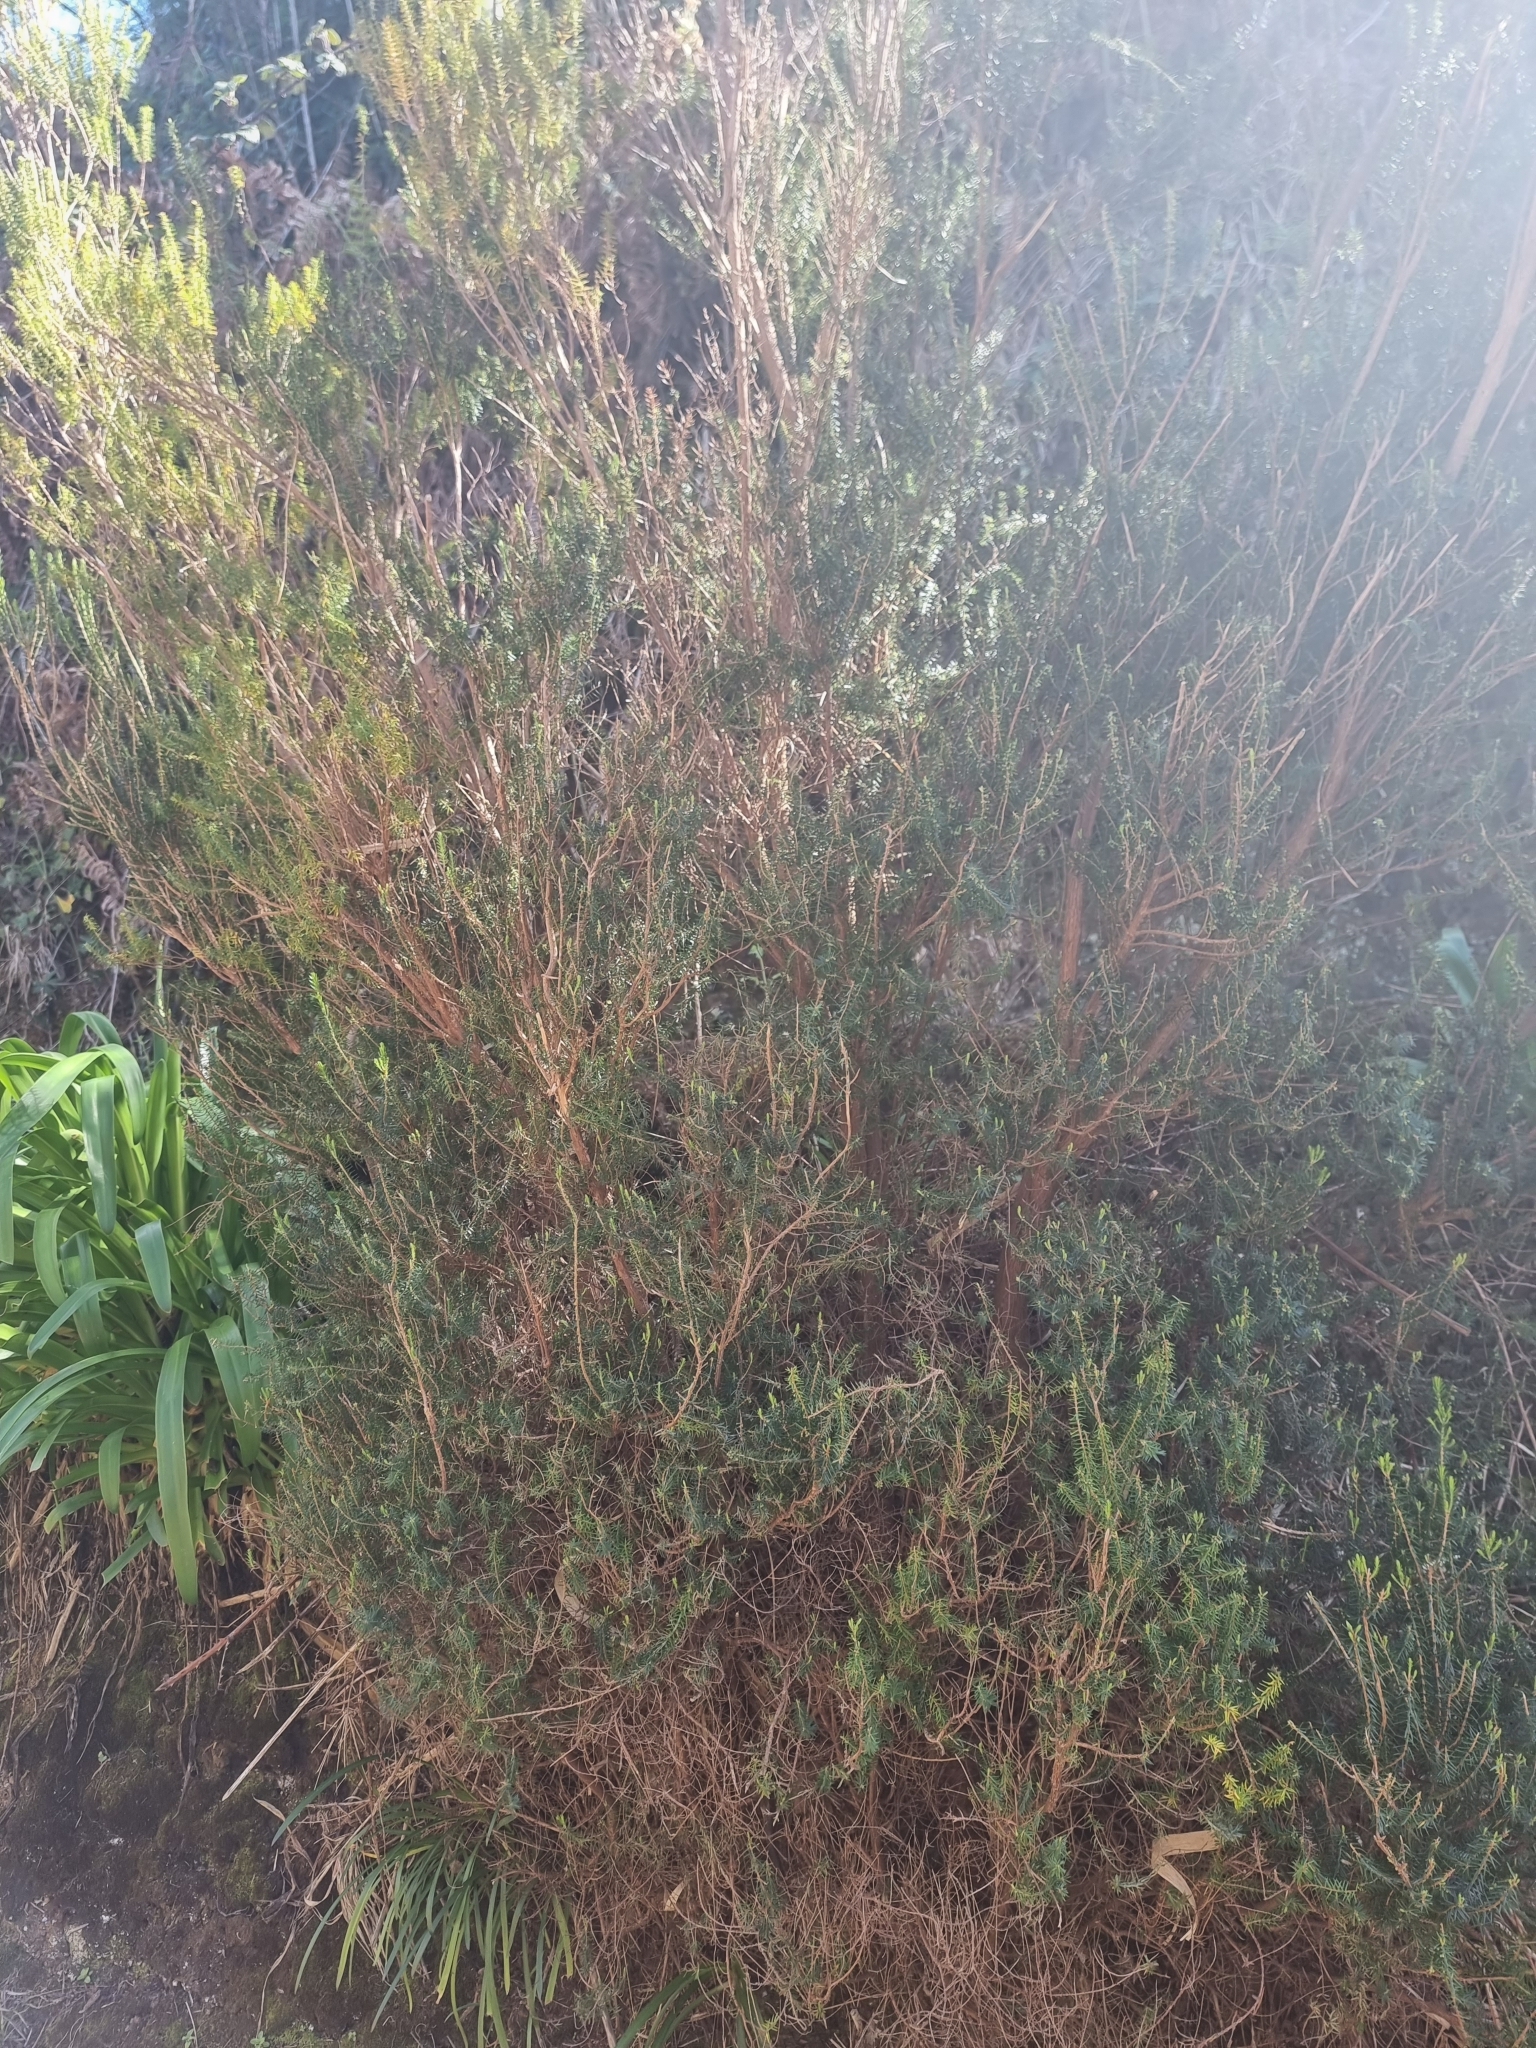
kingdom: Plantae
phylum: Tracheophyta
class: Magnoliopsida
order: Ericales
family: Ericaceae
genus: Erica
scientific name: Erica platycodon
